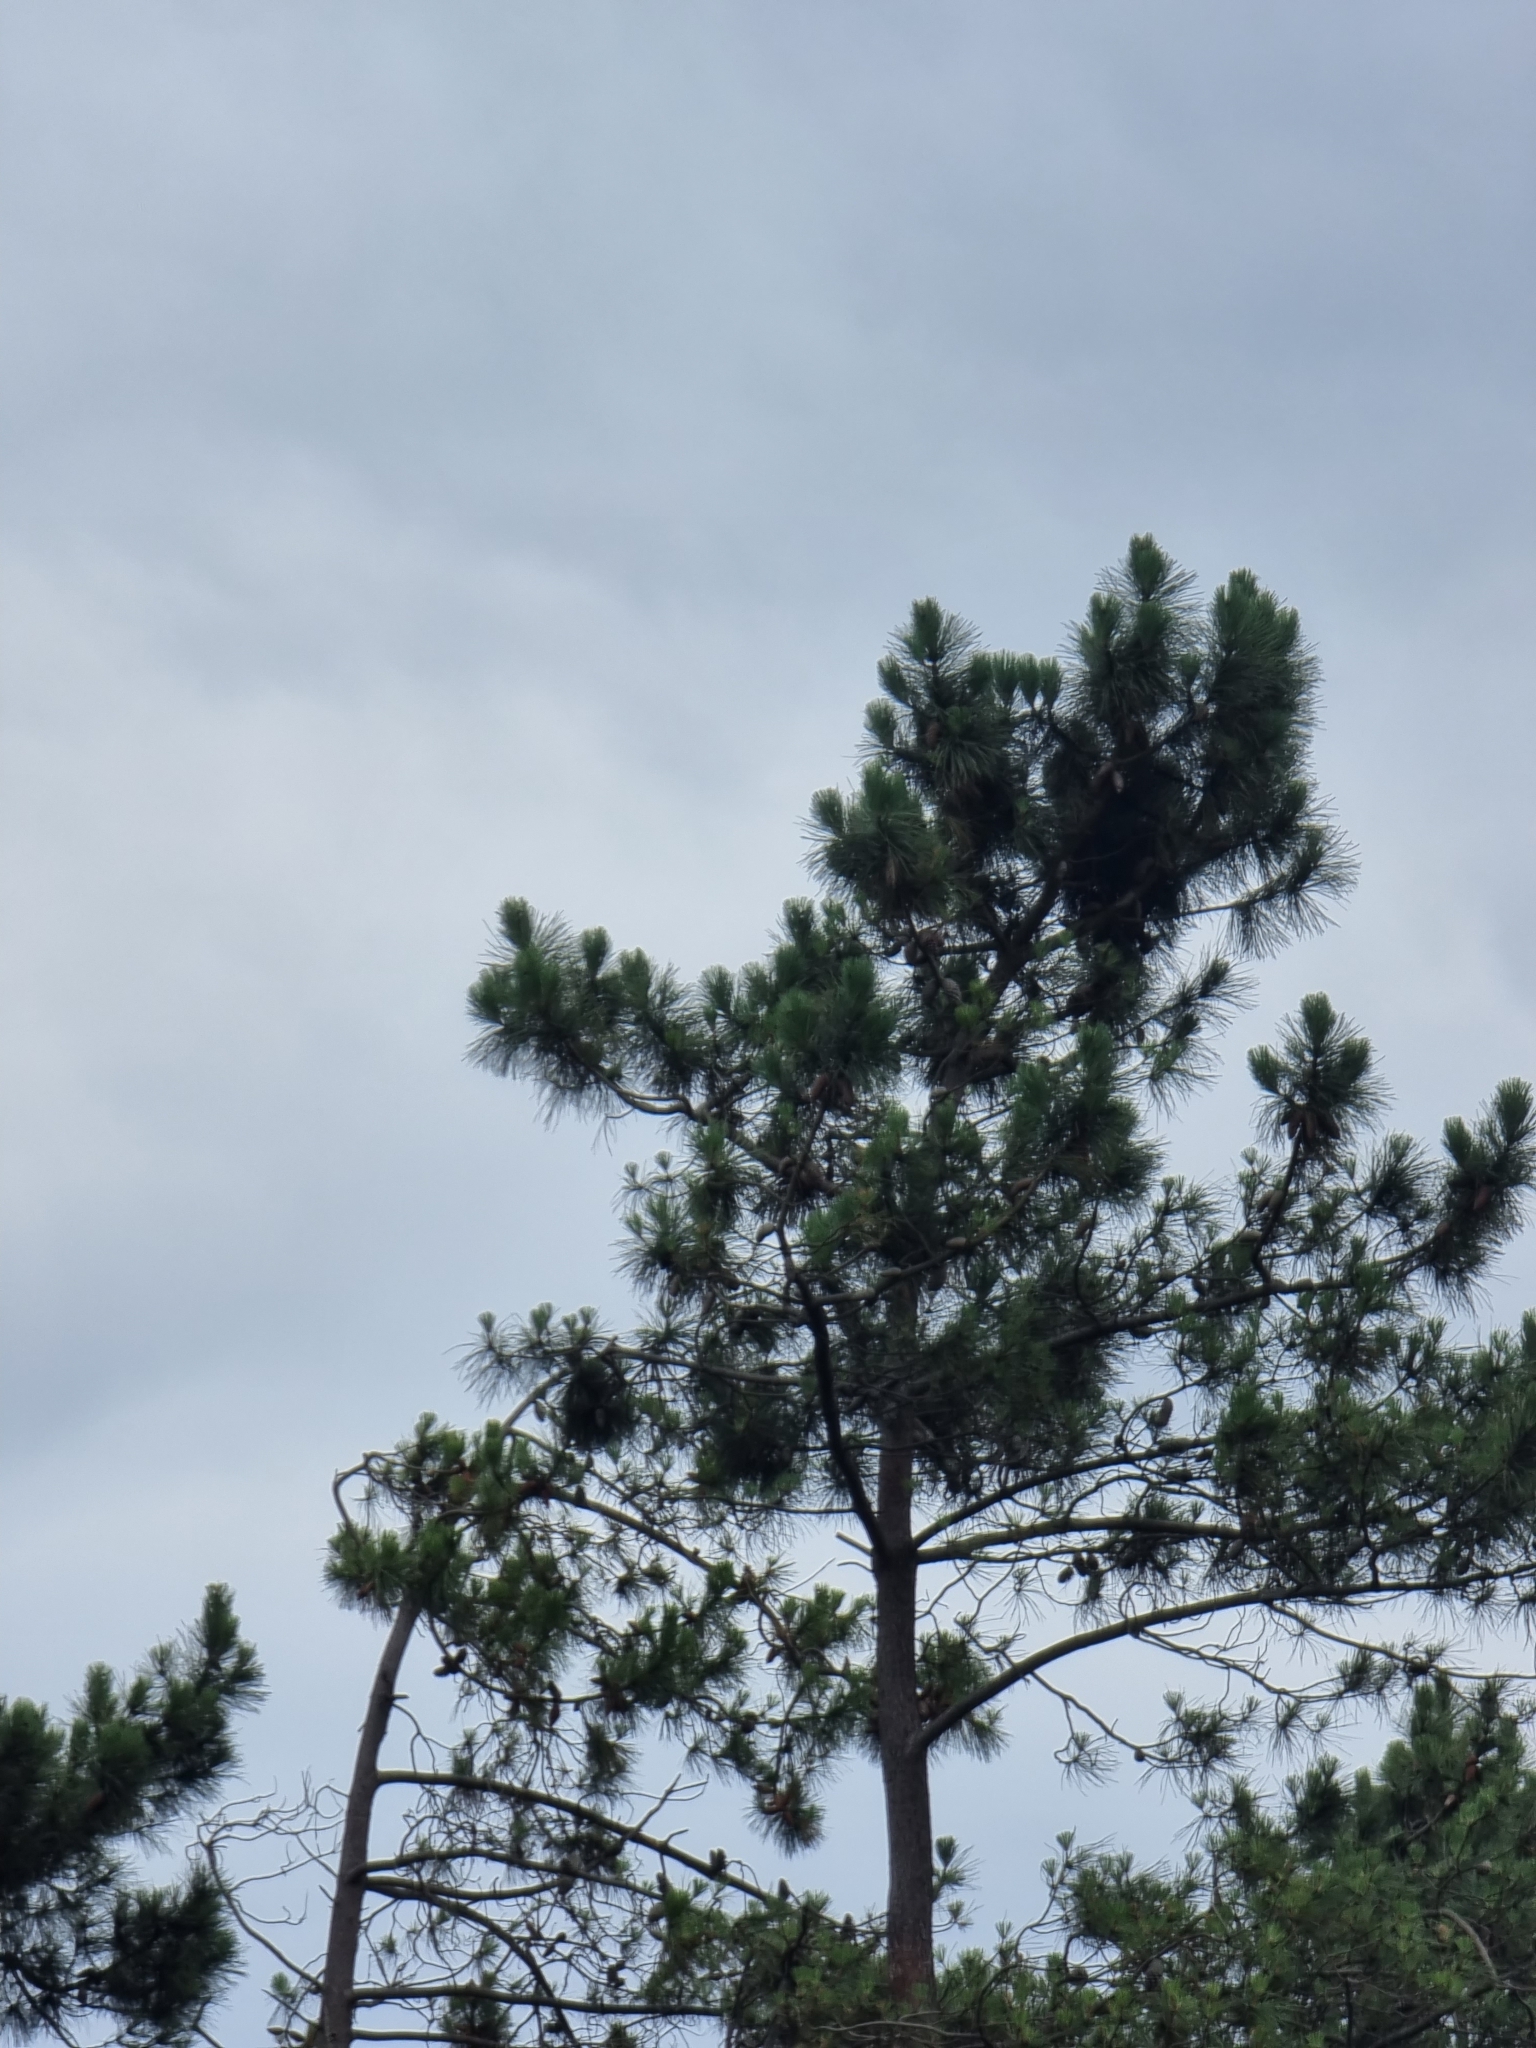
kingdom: Plantae
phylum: Tracheophyta
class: Pinopsida
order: Pinales
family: Pinaceae
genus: Pinus
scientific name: Pinus pinaster
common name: Maritime pine
